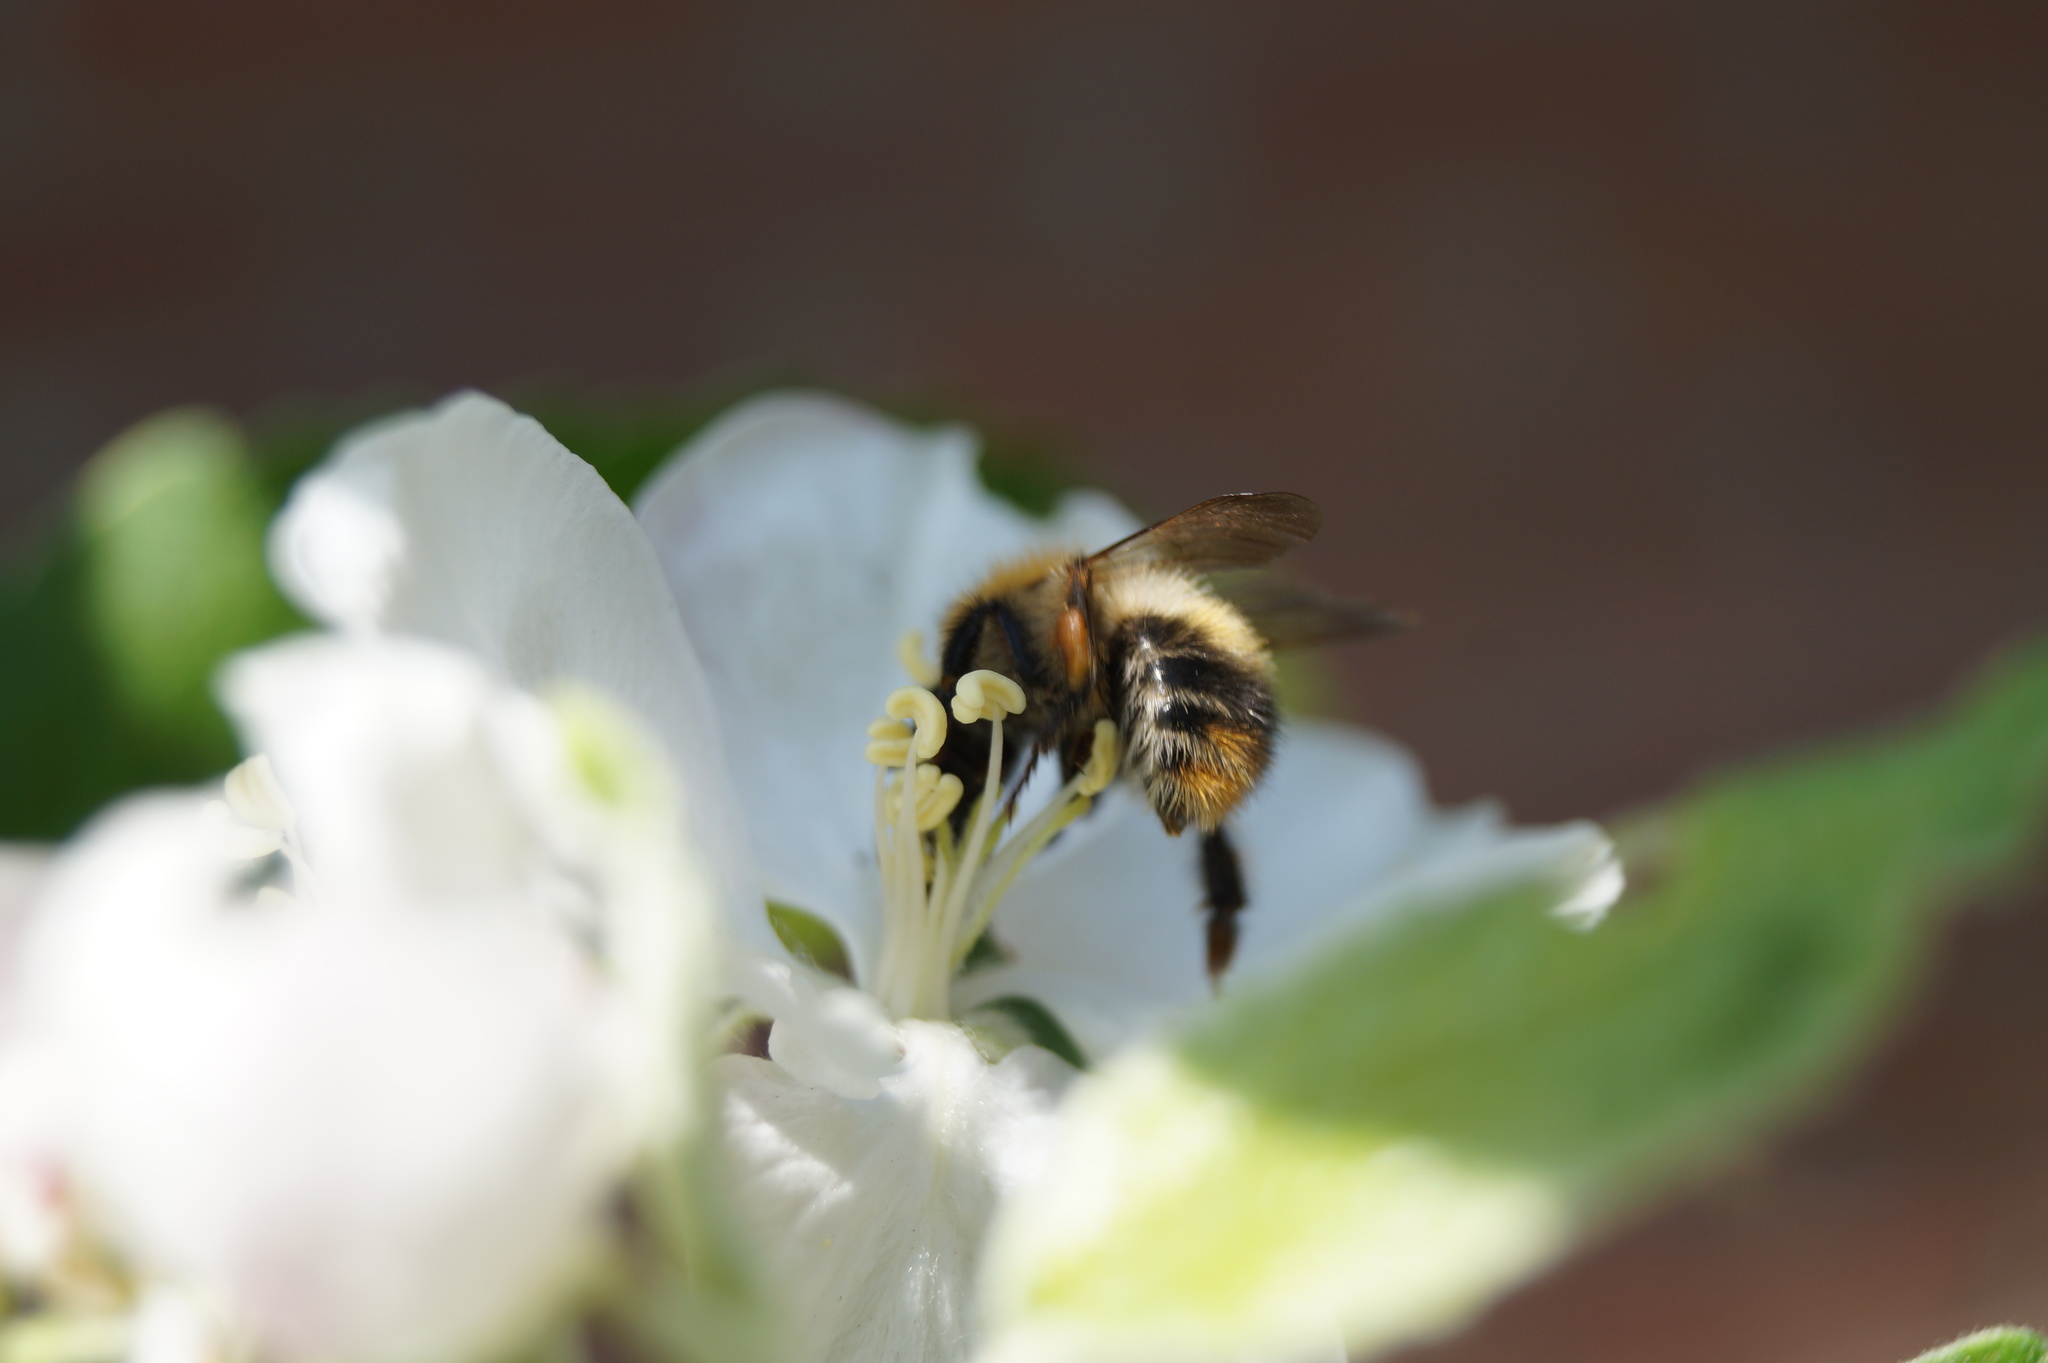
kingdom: Animalia
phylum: Arthropoda
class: Insecta
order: Hymenoptera
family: Apidae
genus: Bombus
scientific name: Bombus pascuorum
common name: Common carder bee
